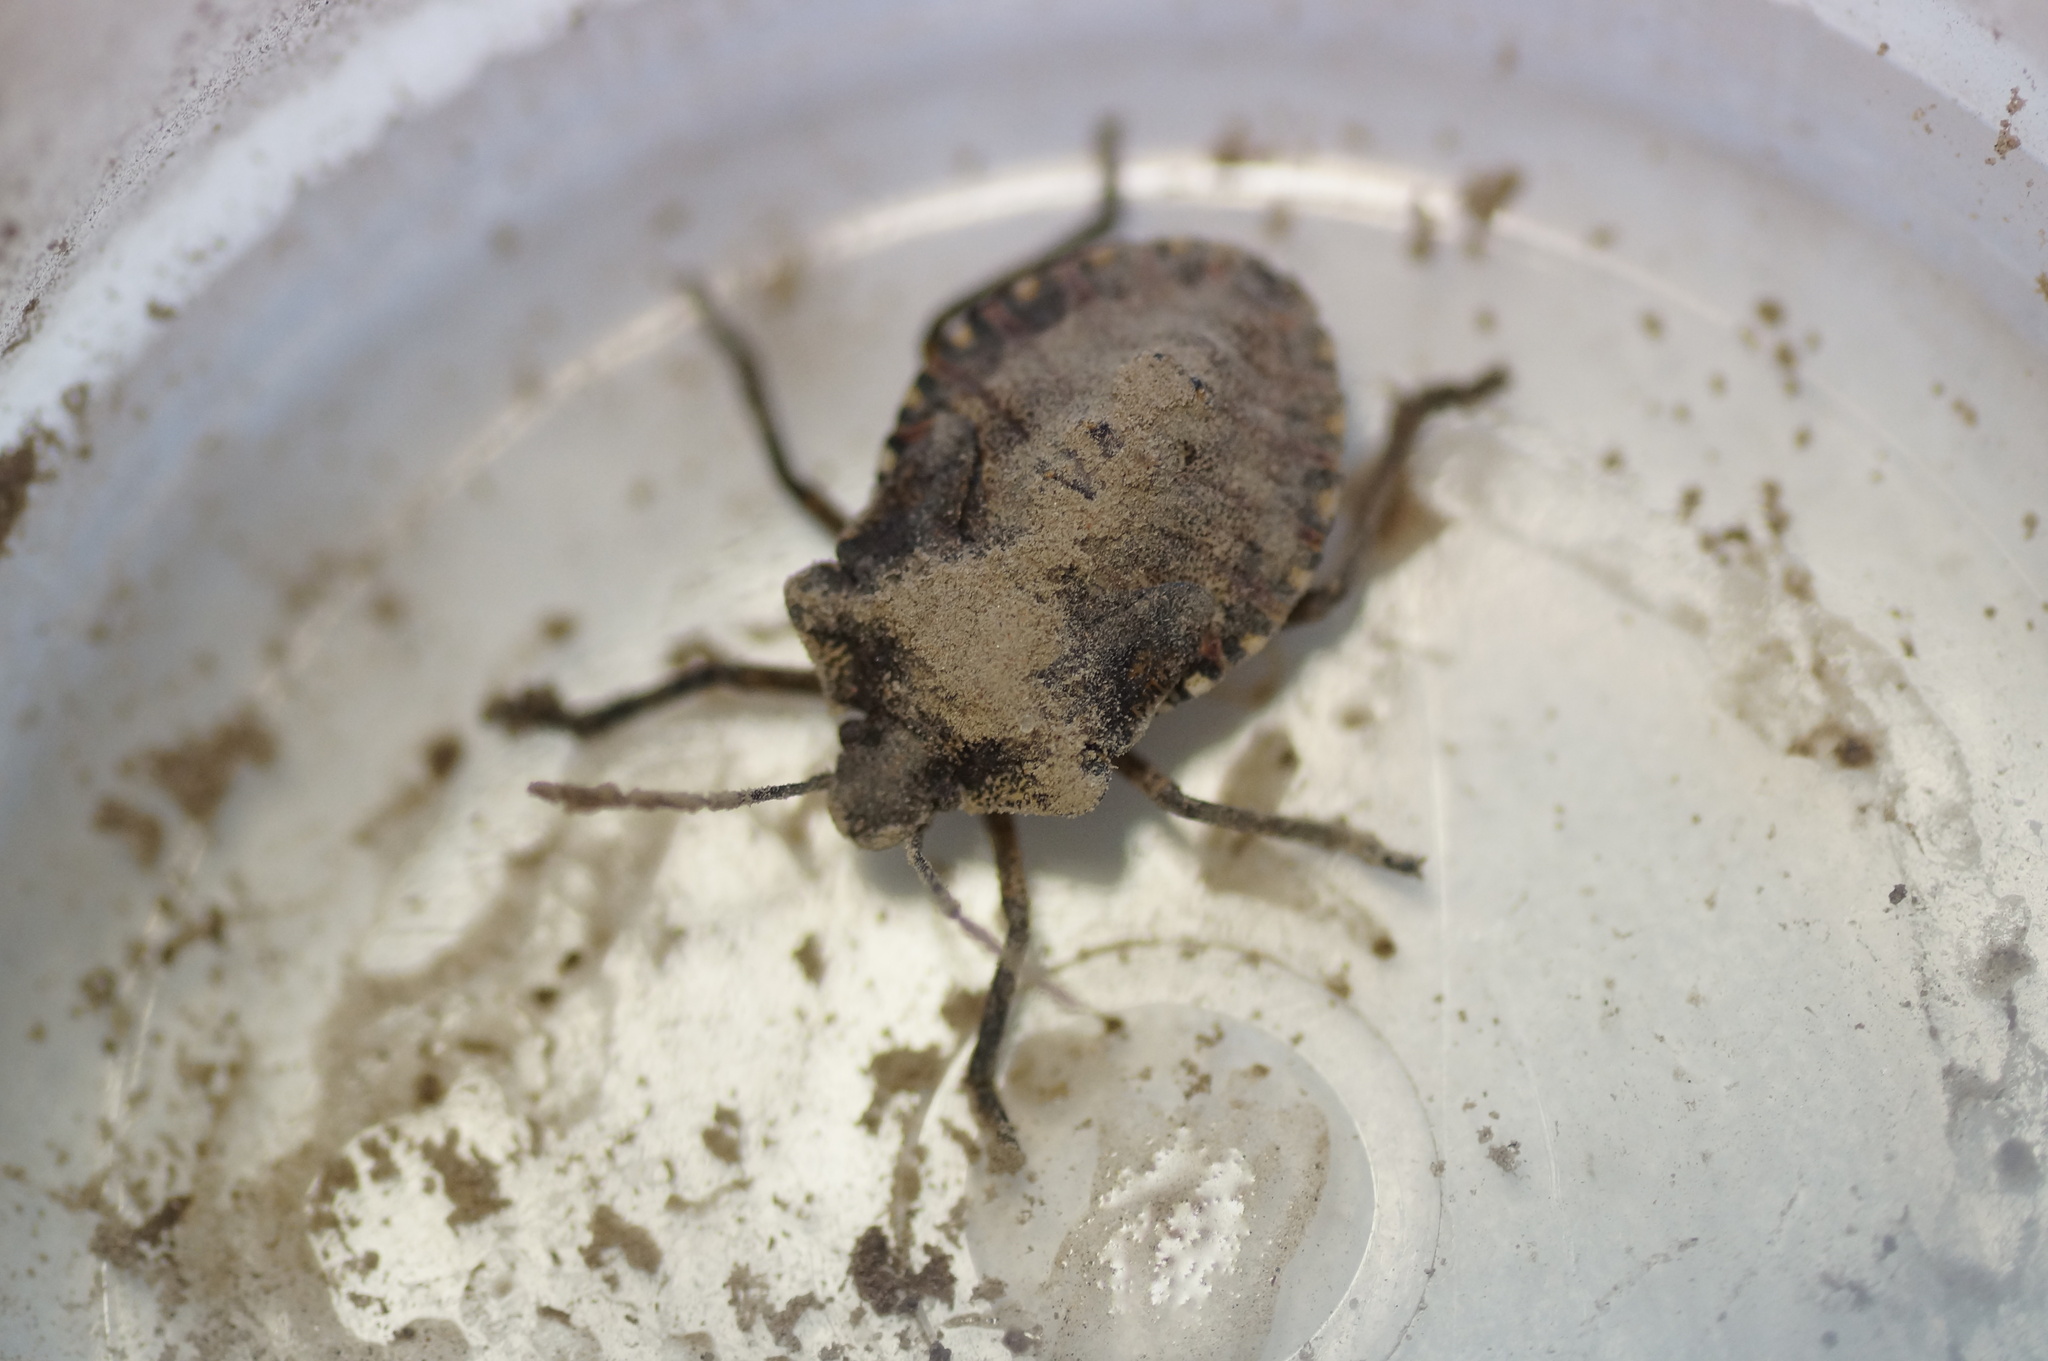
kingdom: Animalia
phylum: Arthropoda
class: Insecta
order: Hemiptera
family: Pentatomidae
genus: Pentatoma
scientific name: Pentatoma rufipes
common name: Forest bug
